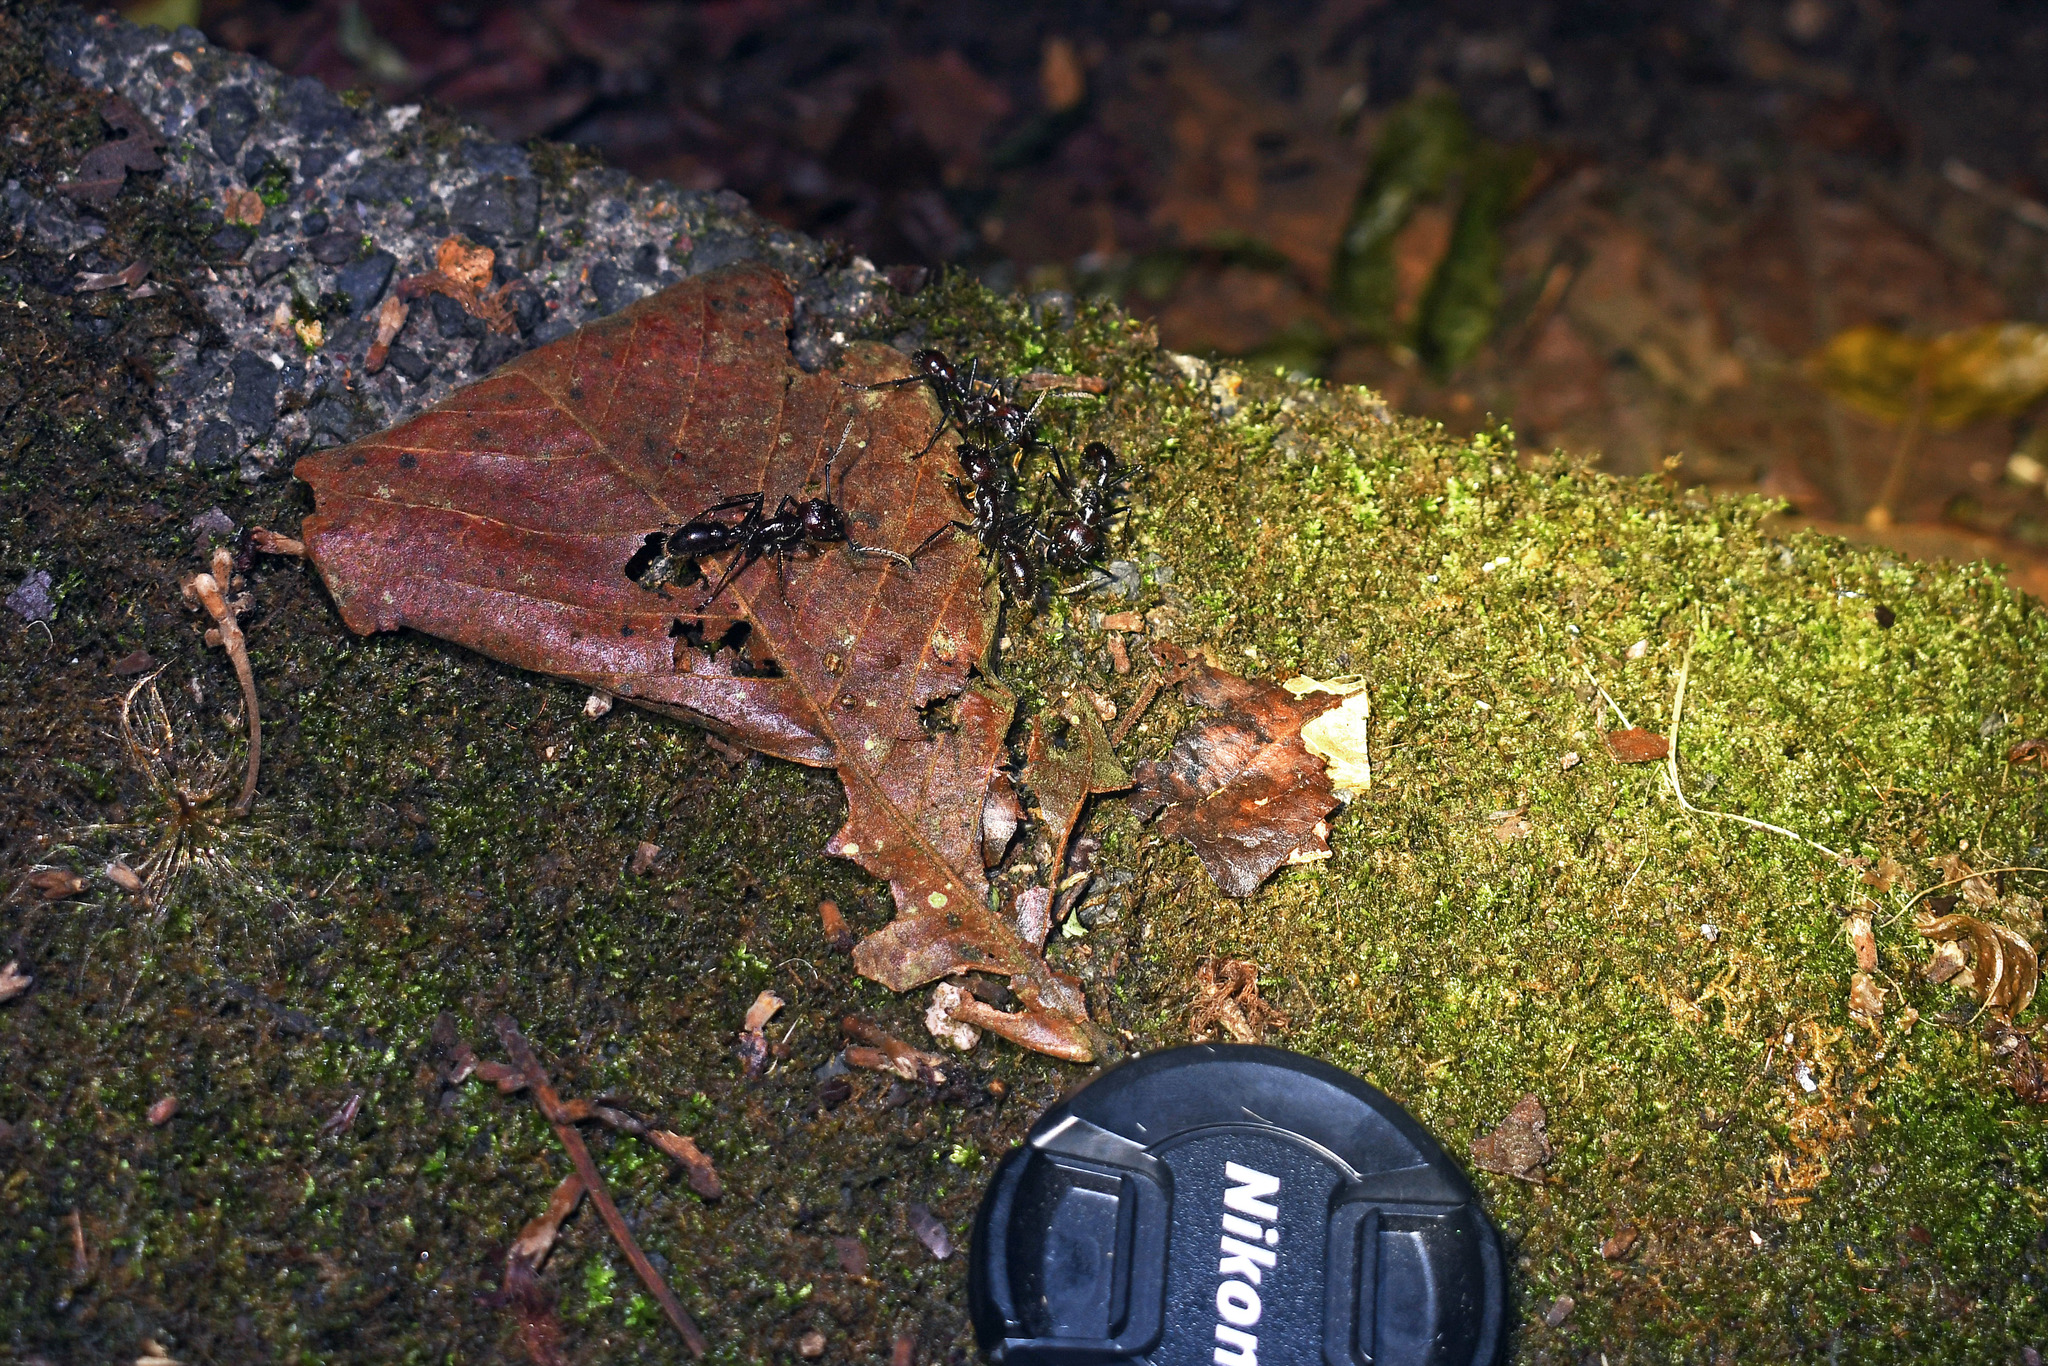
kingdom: Animalia
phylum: Arthropoda
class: Insecta
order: Hymenoptera
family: Formicidae
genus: Paraponera
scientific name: Paraponera clavata
